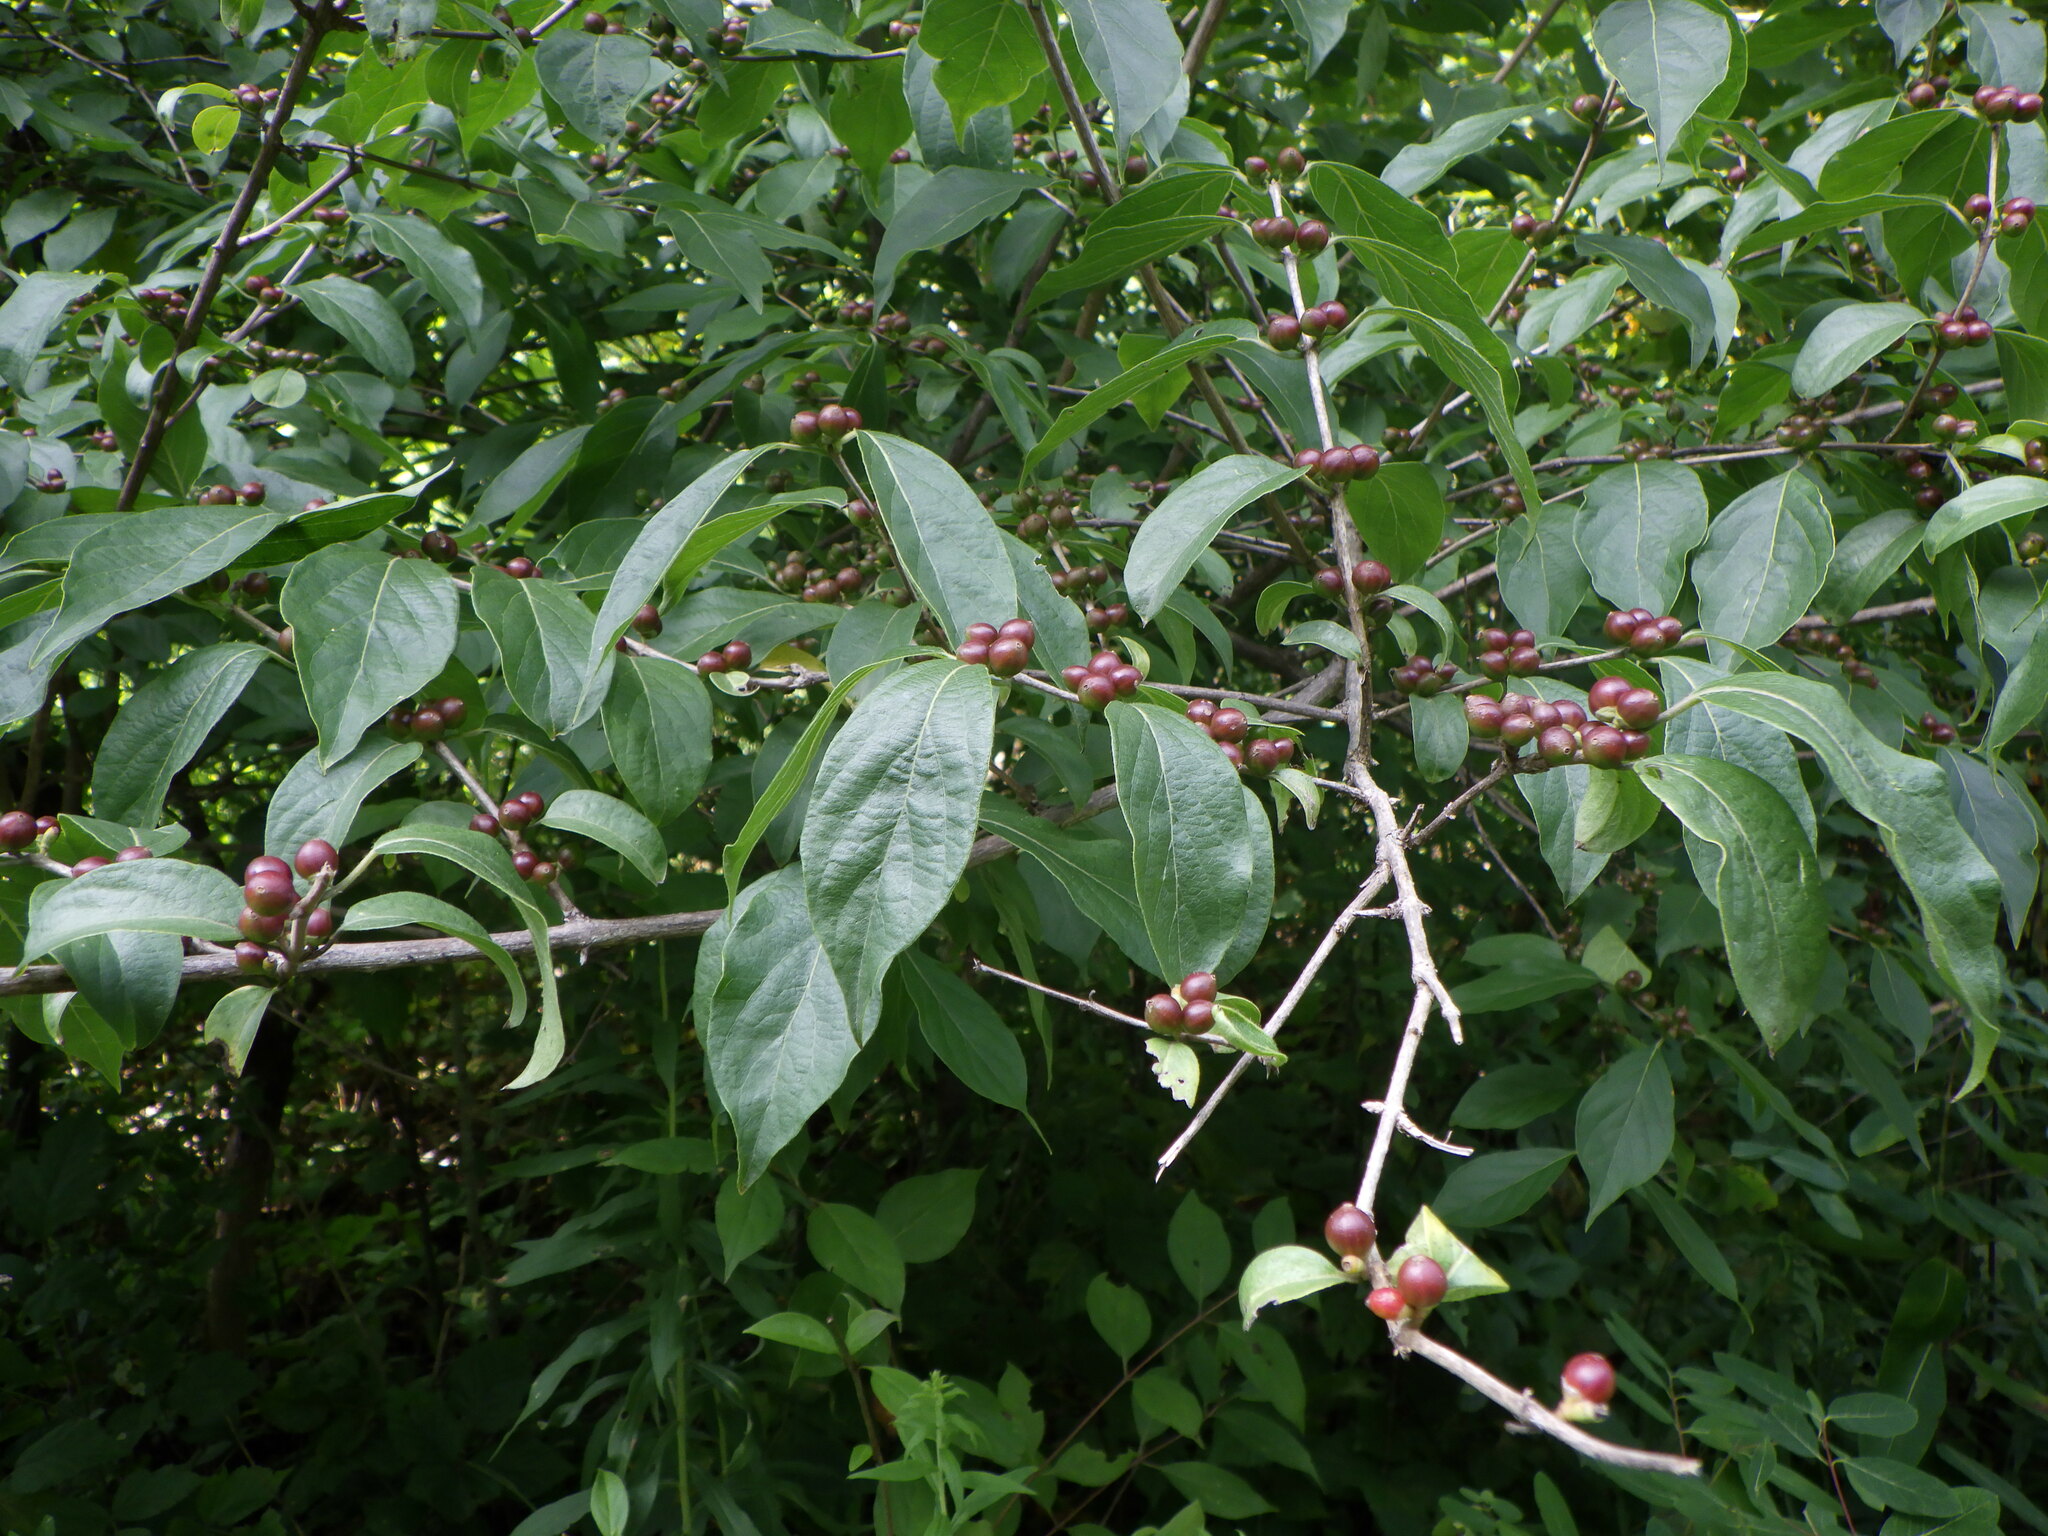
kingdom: Plantae
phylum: Tracheophyta
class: Magnoliopsida
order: Rosales
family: Elaeagnaceae
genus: Elaeagnus
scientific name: Elaeagnus umbellata
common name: Autumn olive
